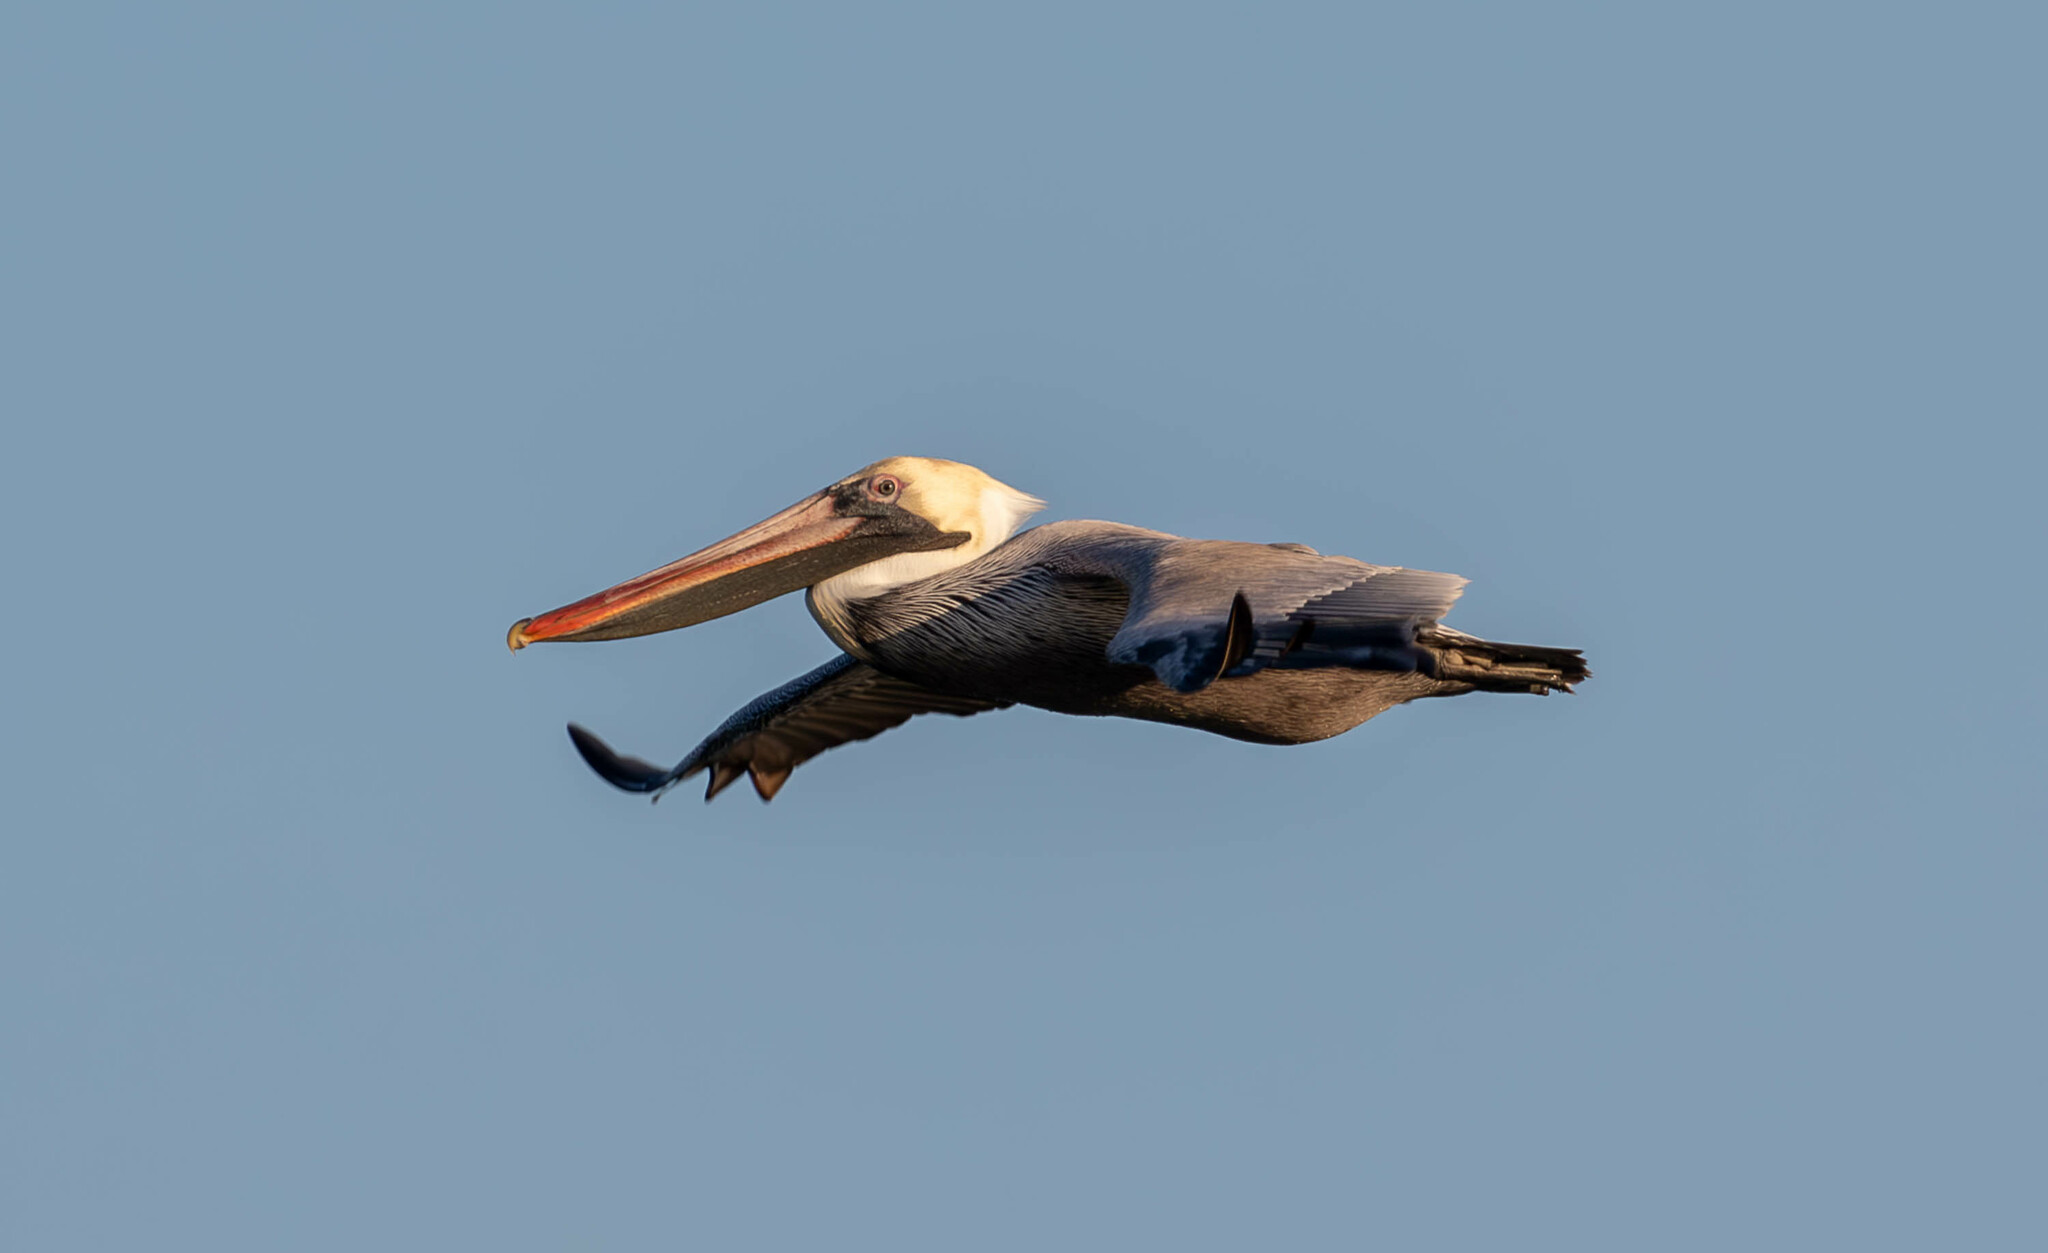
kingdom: Animalia
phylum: Chordata
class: Aves
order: Pelecaniformes
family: Pelecanidae
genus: Pelecanus
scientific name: Pelecanus occidentalis
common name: Brown pelican
